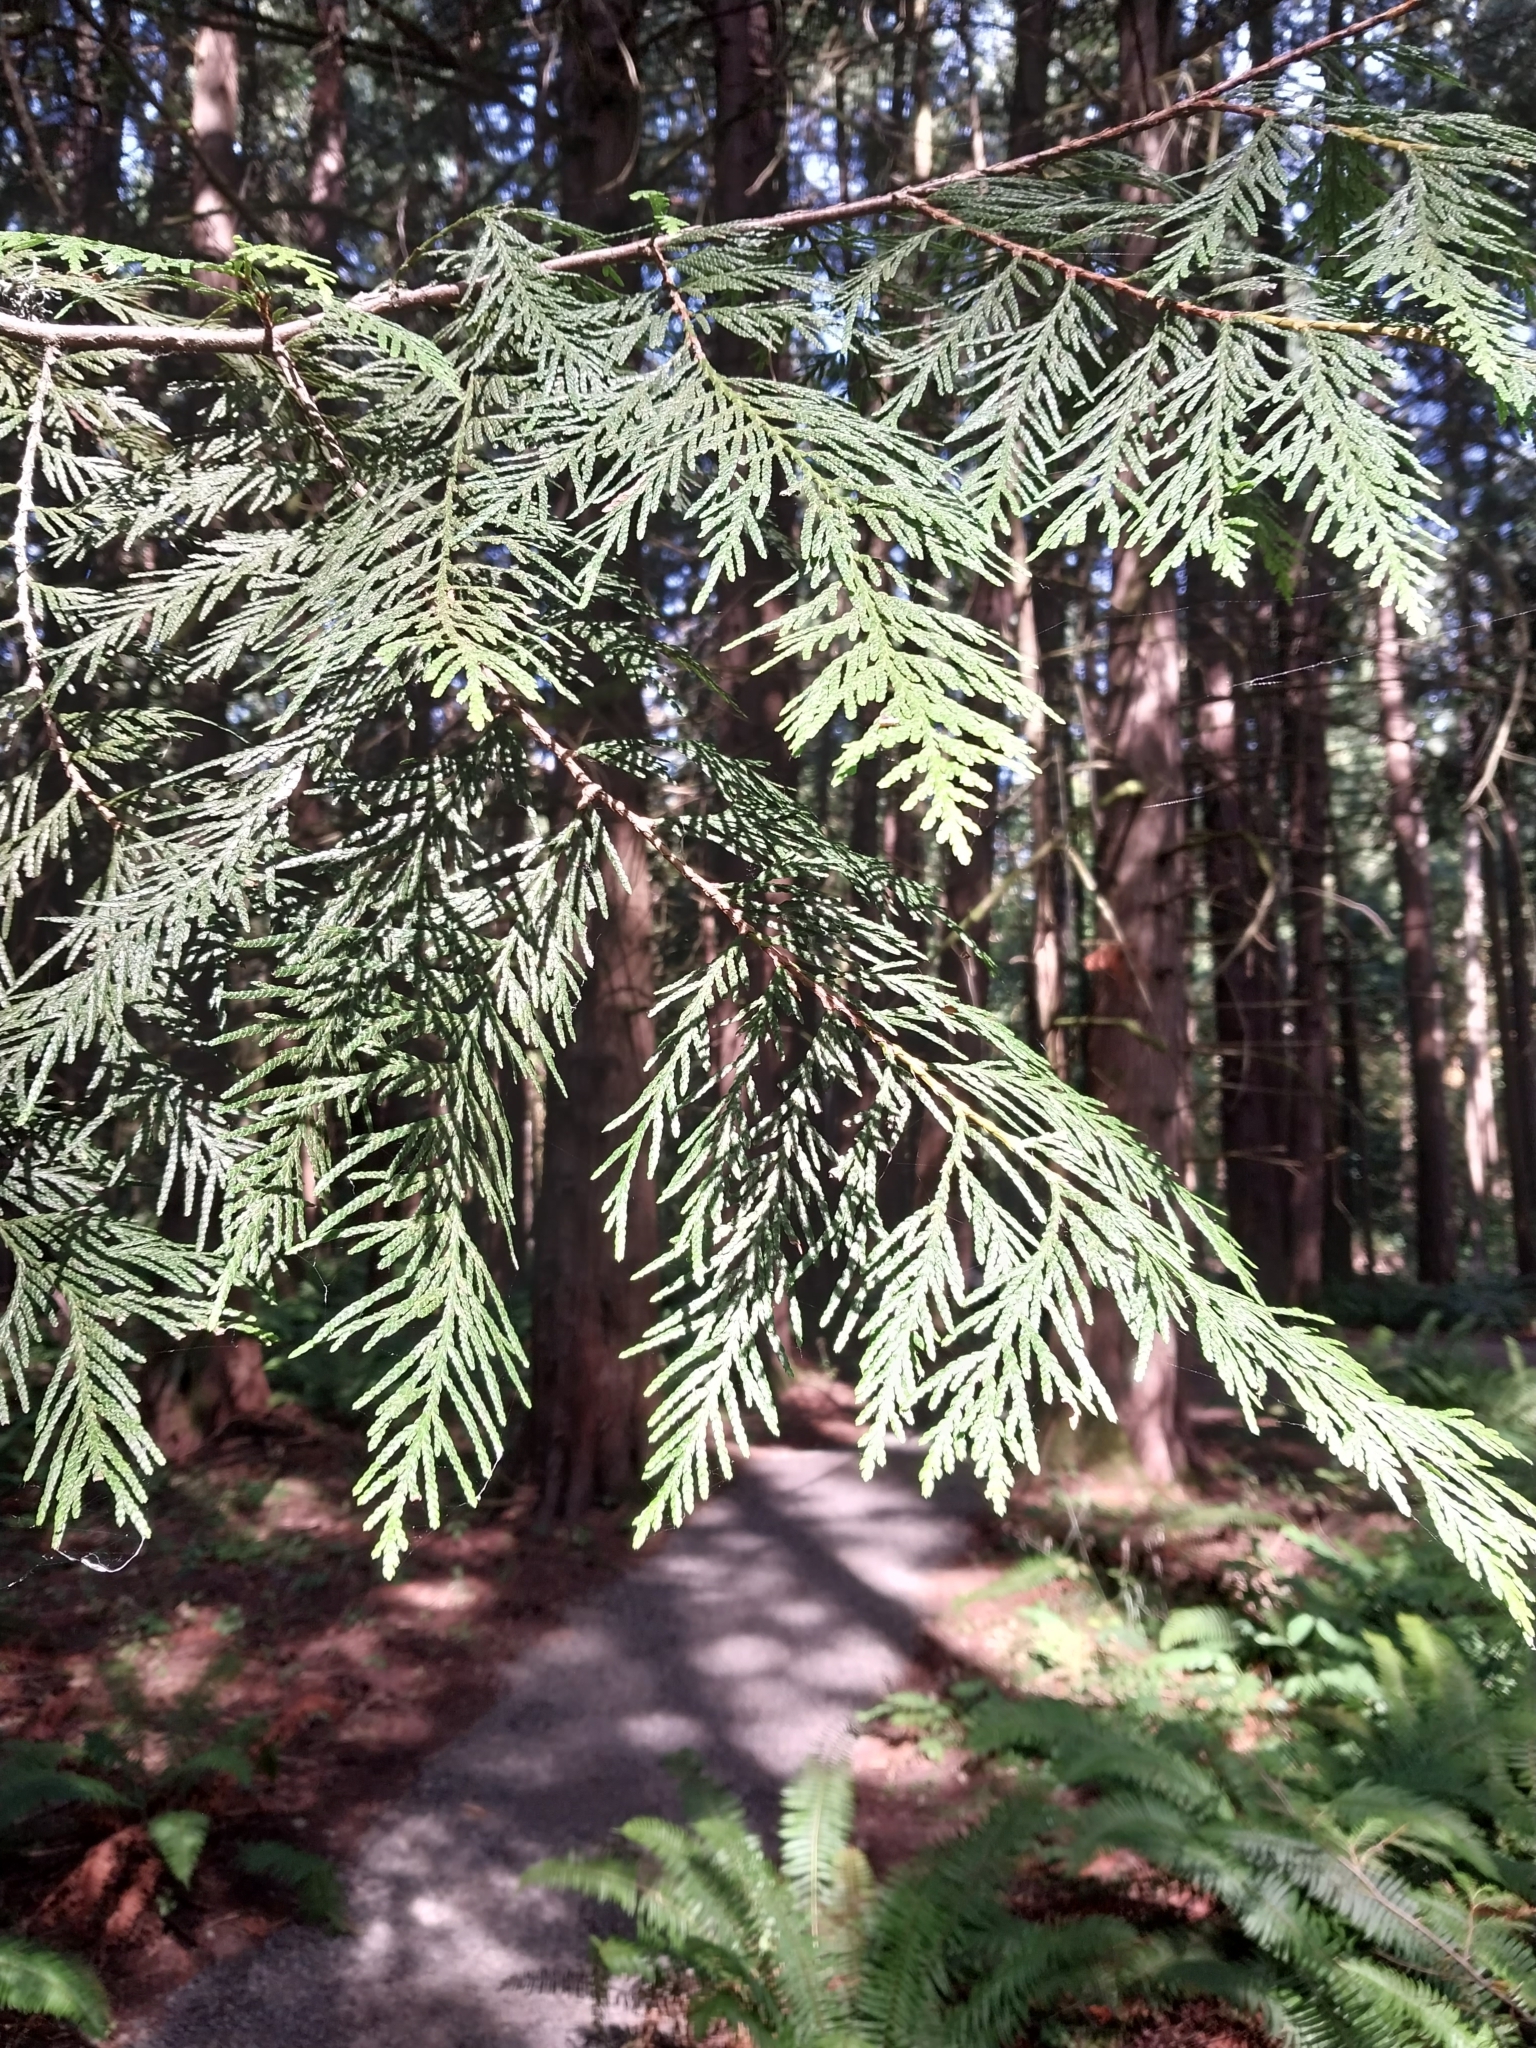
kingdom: Plantae
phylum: Tracheophyta
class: Pinopsida
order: Pinales
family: Cupressaceae
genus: Thuja
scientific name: Thuja plicata
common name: Western red-cedar
